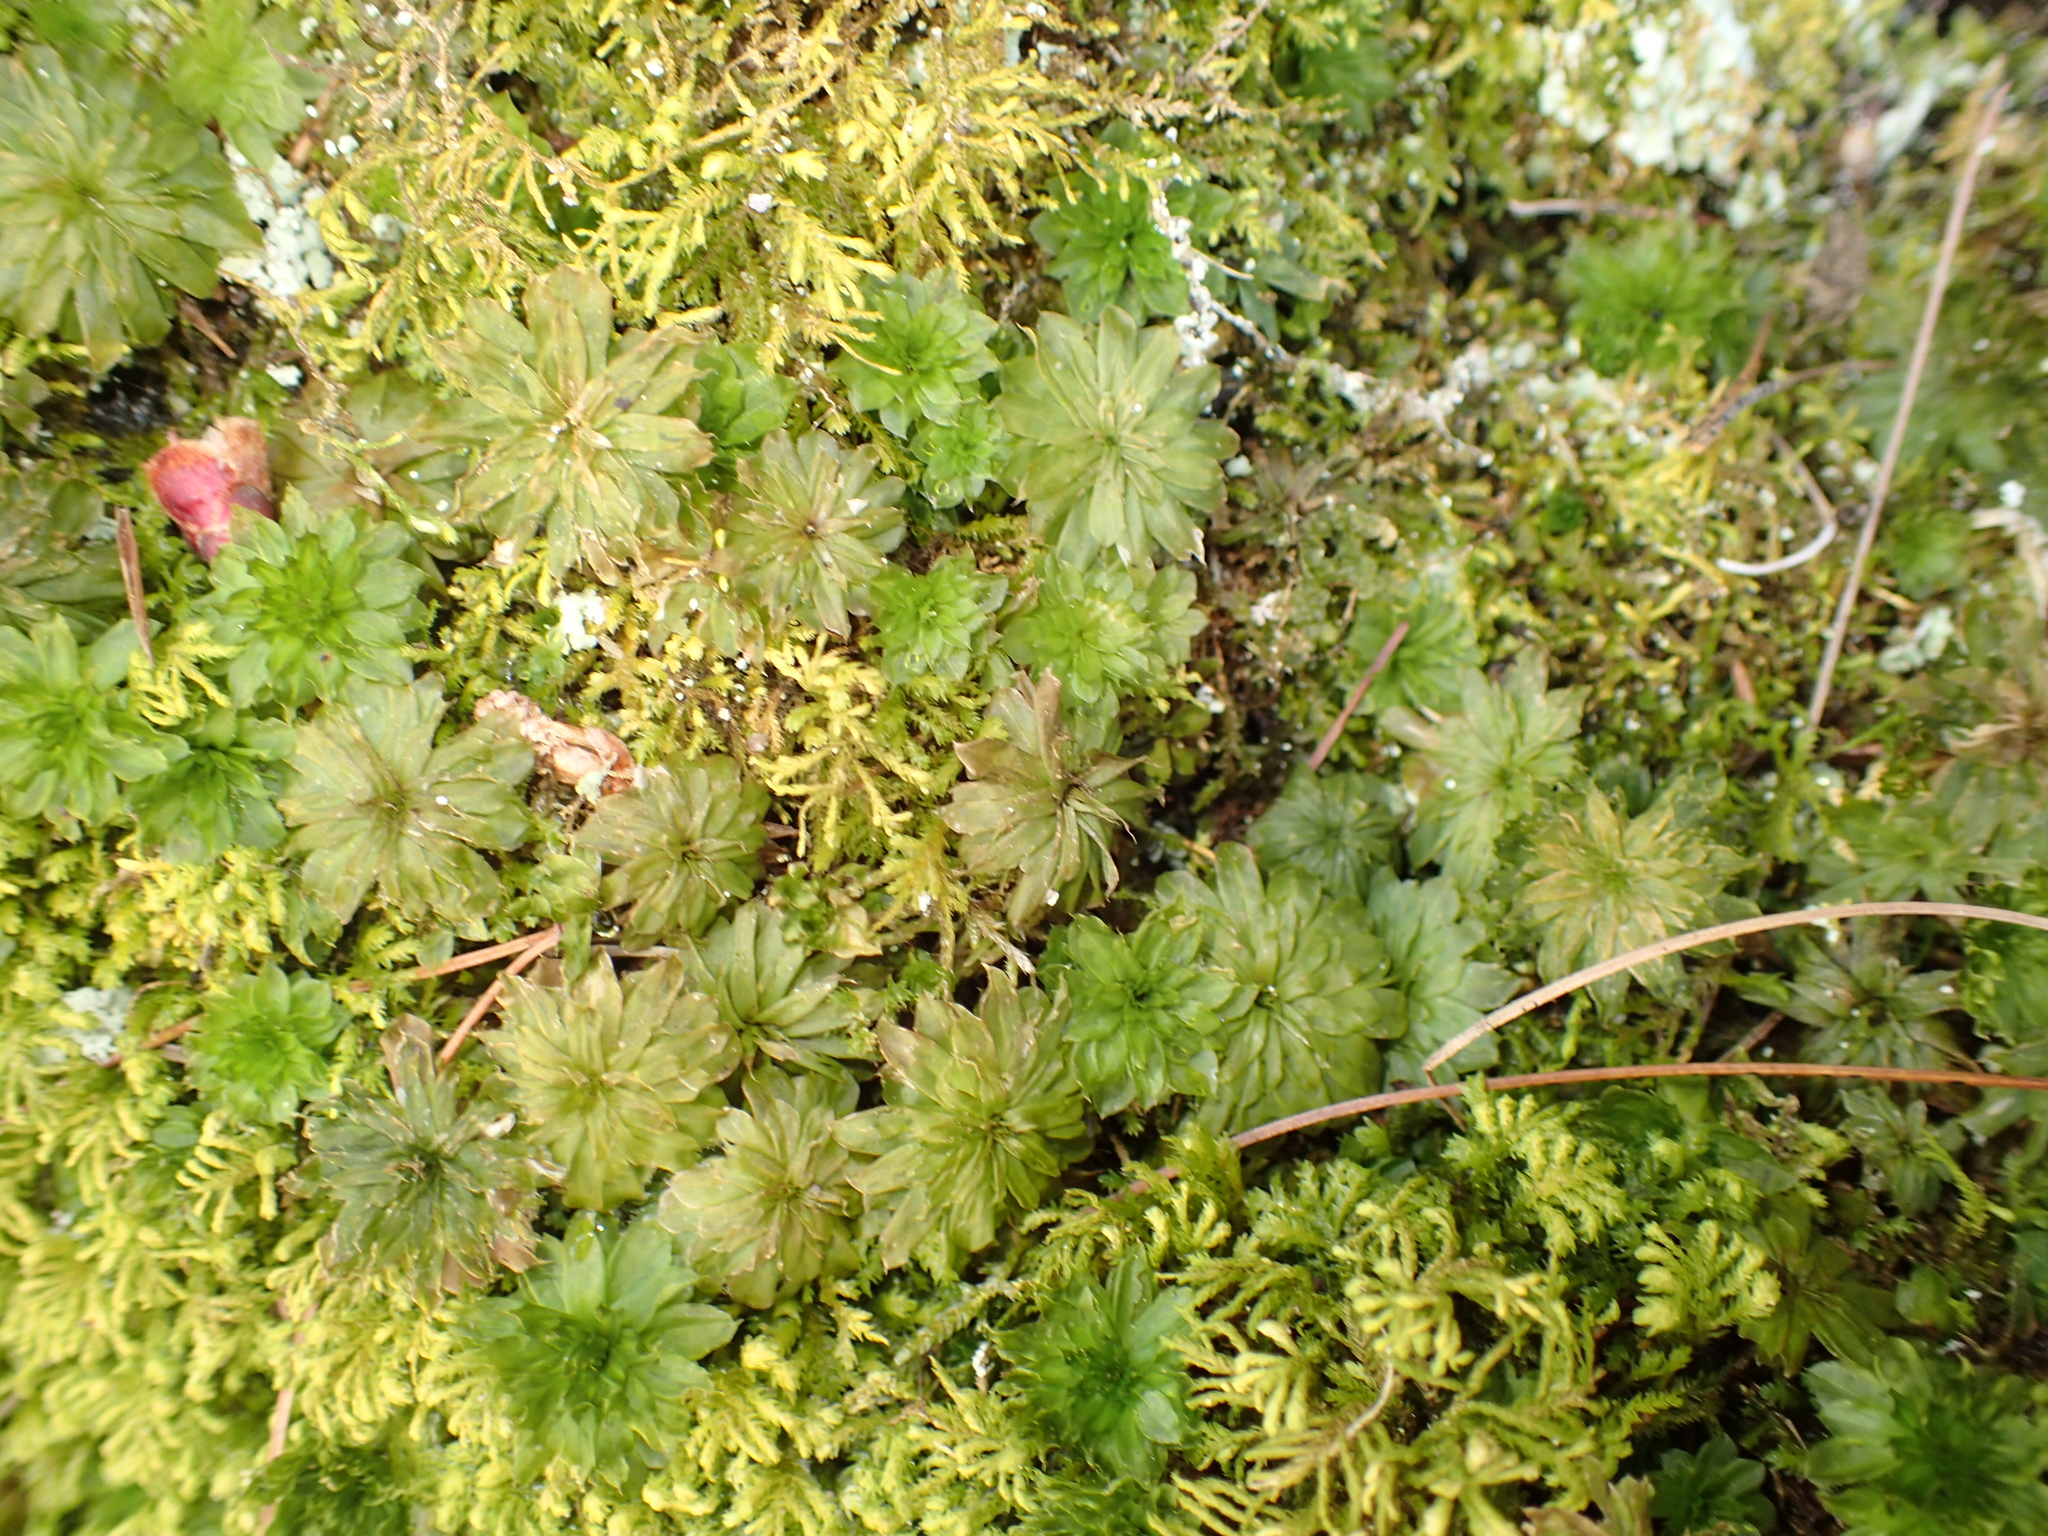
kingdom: Plantae
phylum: Bryophyta
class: Bryopsida
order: Bryales
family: Bryaceae
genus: Rhodobryum
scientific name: Rhodobryum ontariense
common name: Ontario rhodobryum moss
